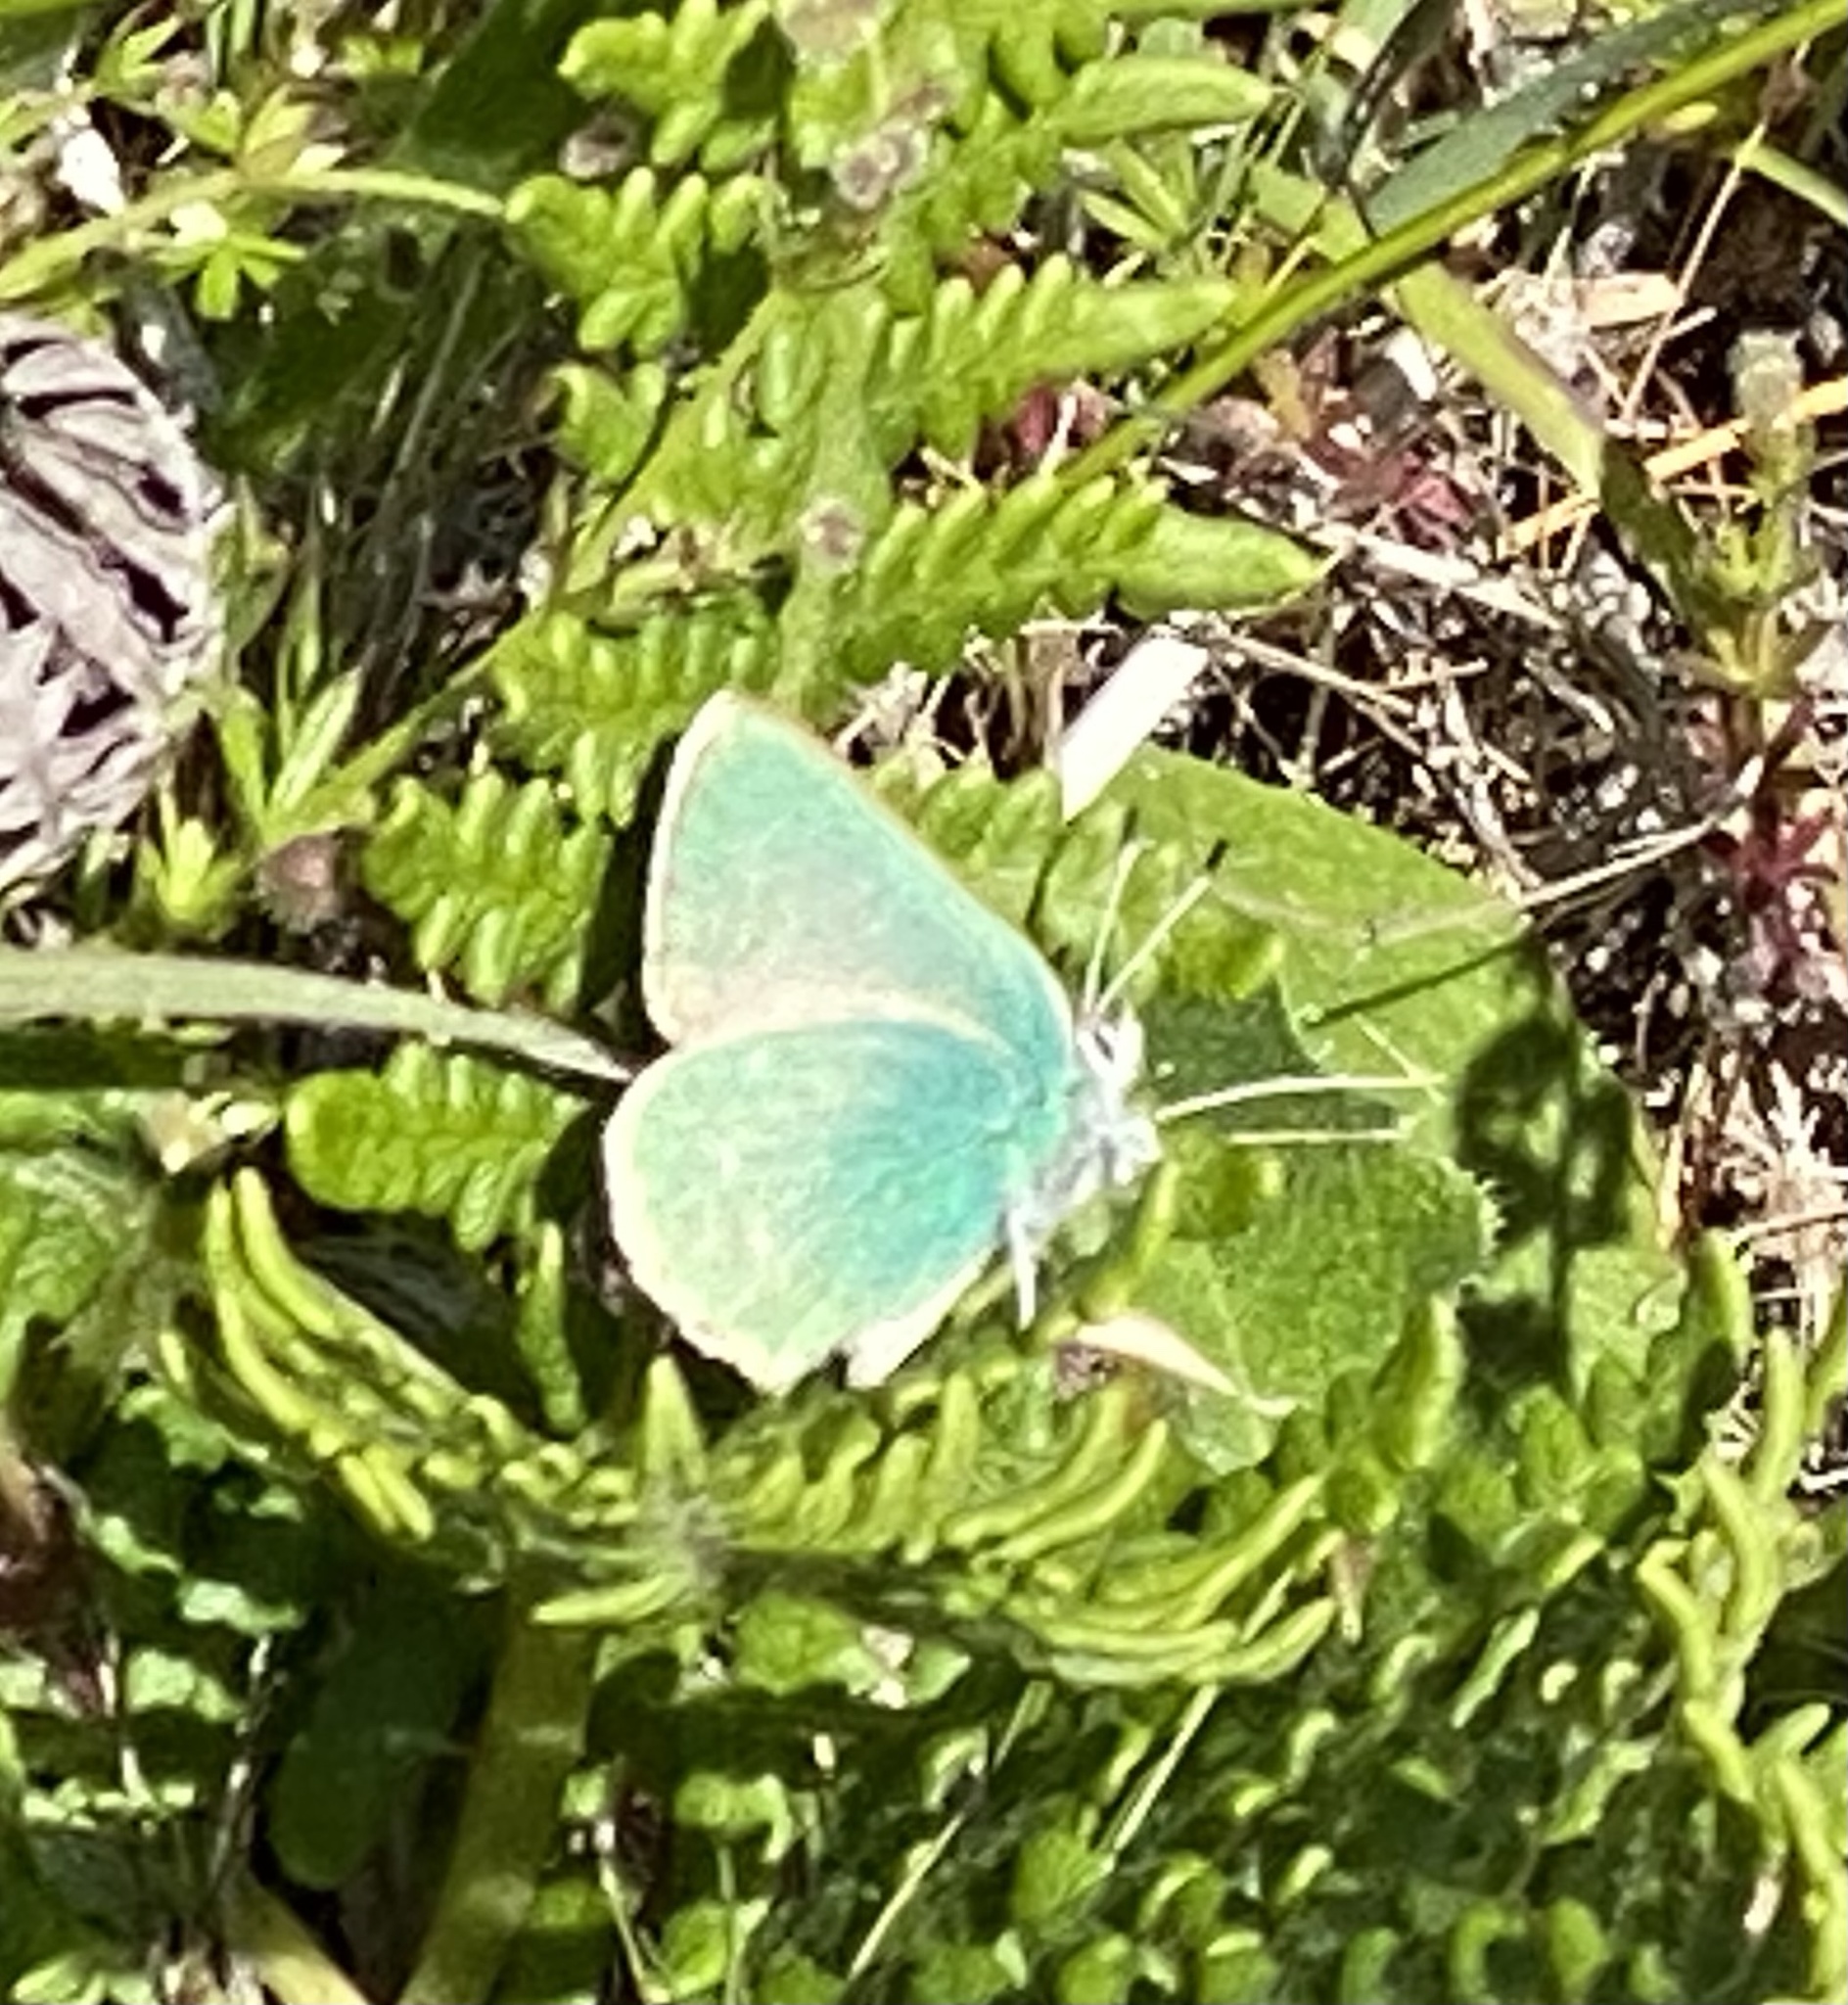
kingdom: Animalia
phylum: Arthropoda
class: Insecta
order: Lepidoptera
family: Lycaenidae
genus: Callophrys
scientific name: Callophrys viridis
